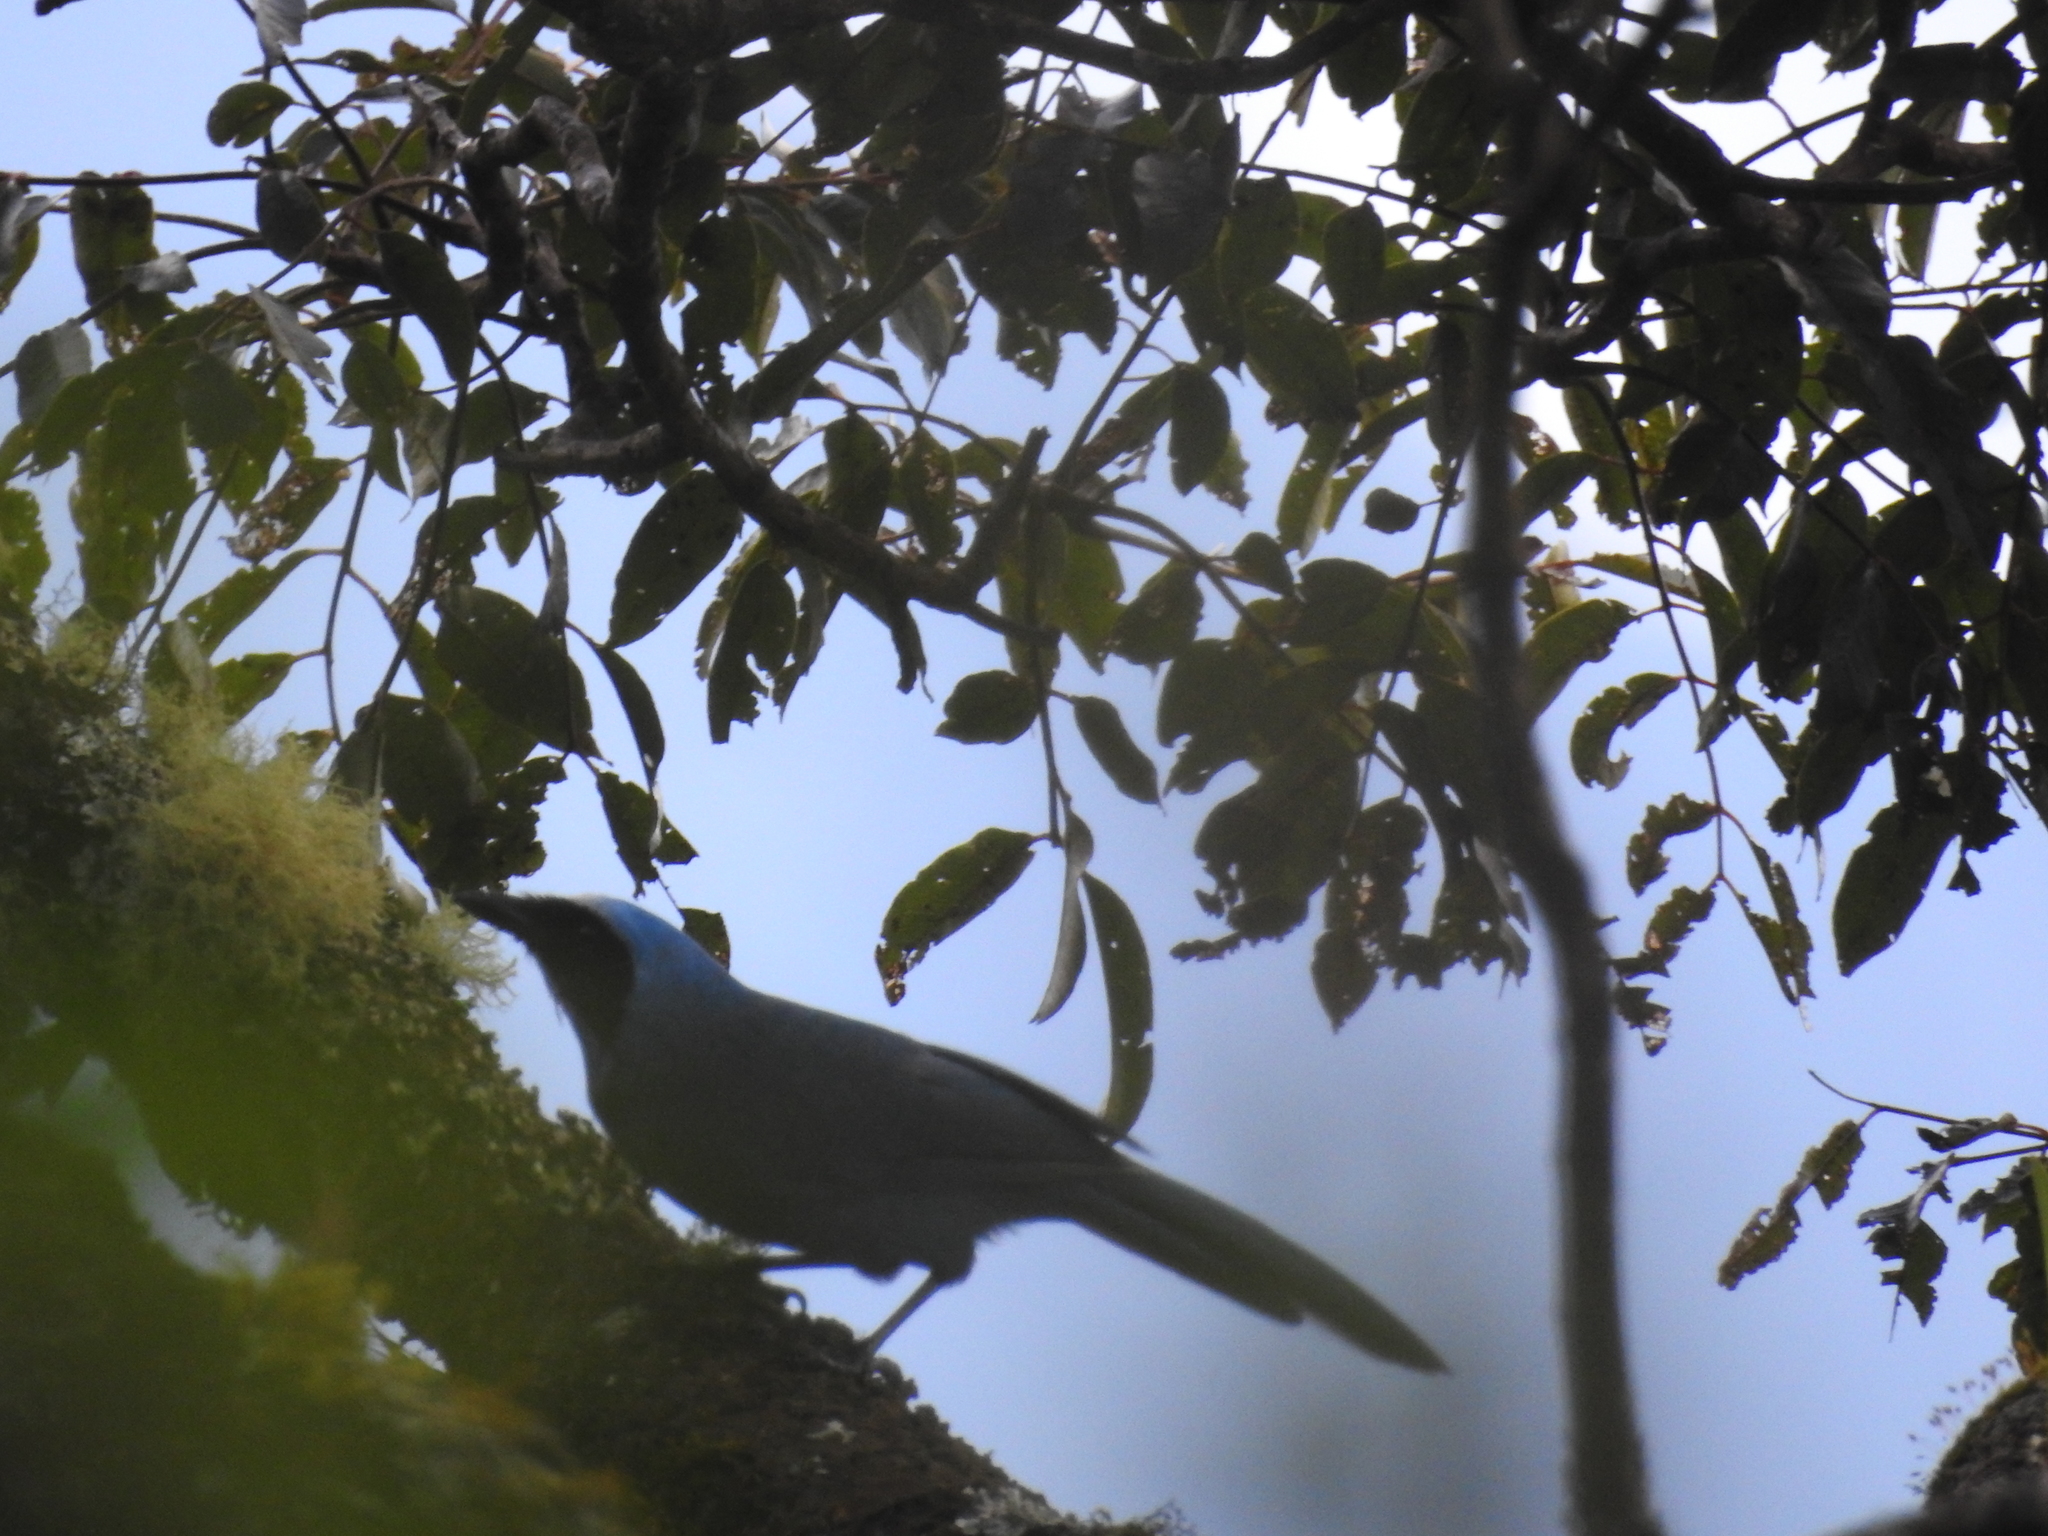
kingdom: Animalia
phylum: Chordata
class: Aves
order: Passeriformes
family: Corvidae
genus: Cyanolyca
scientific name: Cyanolyca turcosa
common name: Turquoise jay
